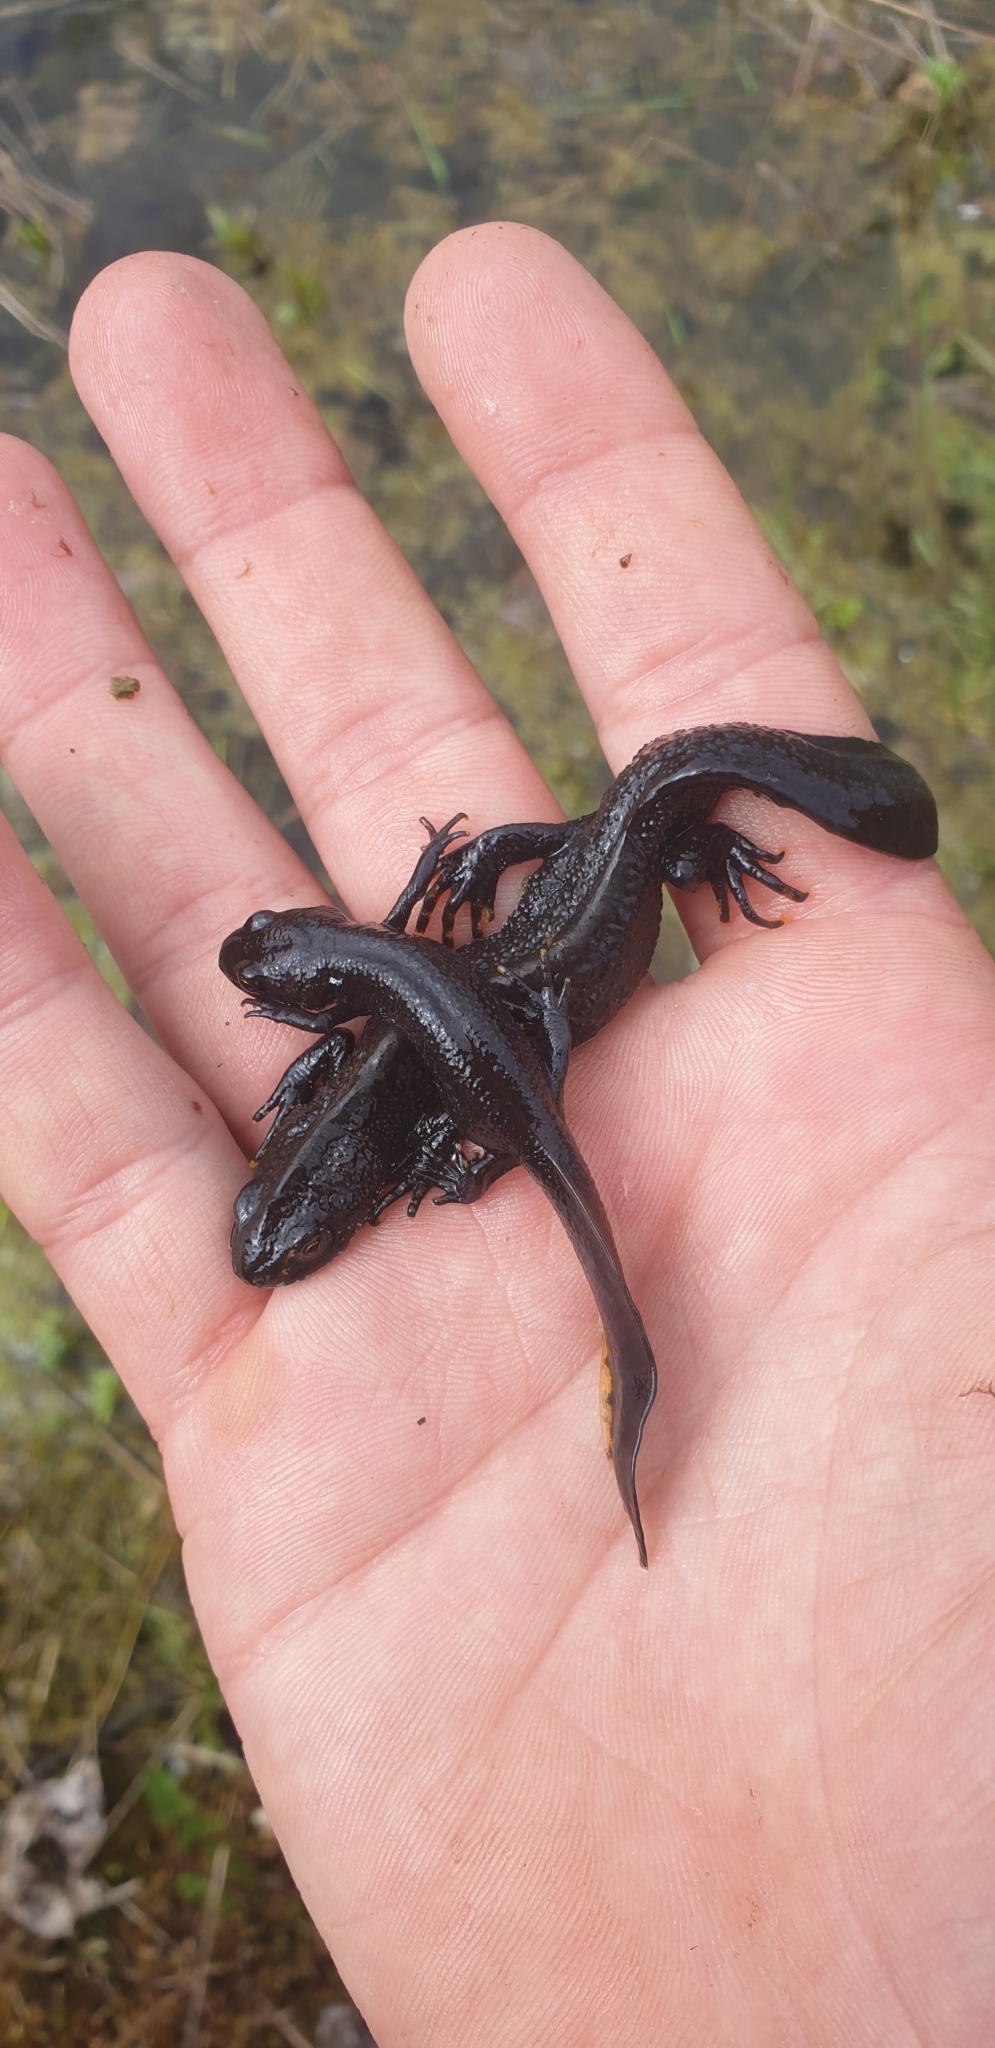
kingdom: Animalia
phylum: Chordata
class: Amphibia
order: Caudata
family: Salamandridae
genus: Triturus
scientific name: Triturus cristatus
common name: Crested newt
